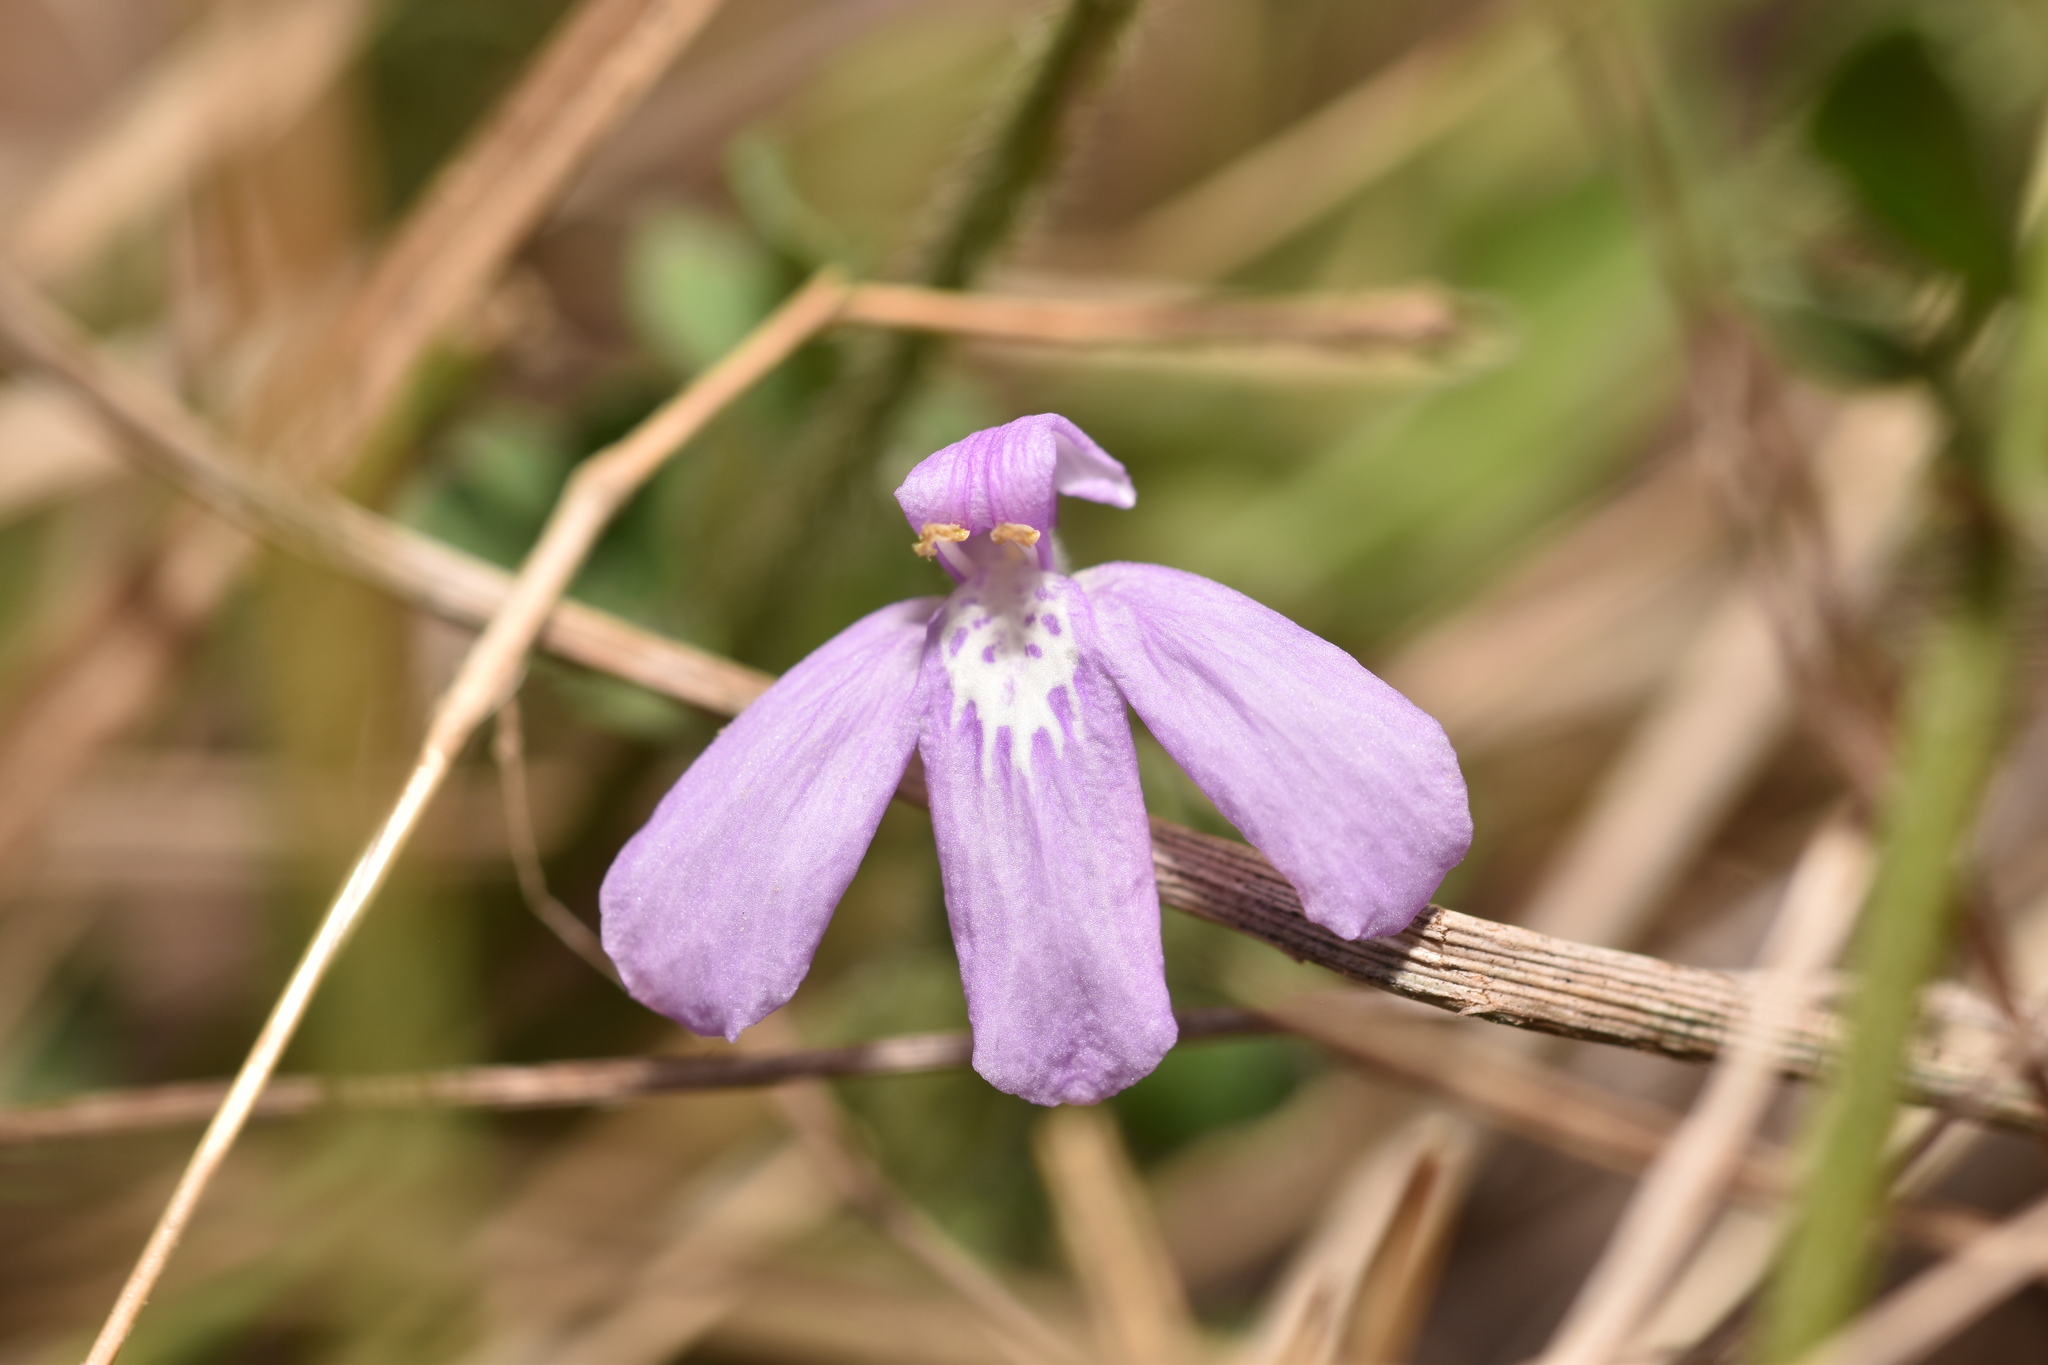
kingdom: Plantae
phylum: Tracheophyta
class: Magnoliopsida
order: Lamiales
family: Acanthaceae
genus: Justicia
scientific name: Justicia pilosella
